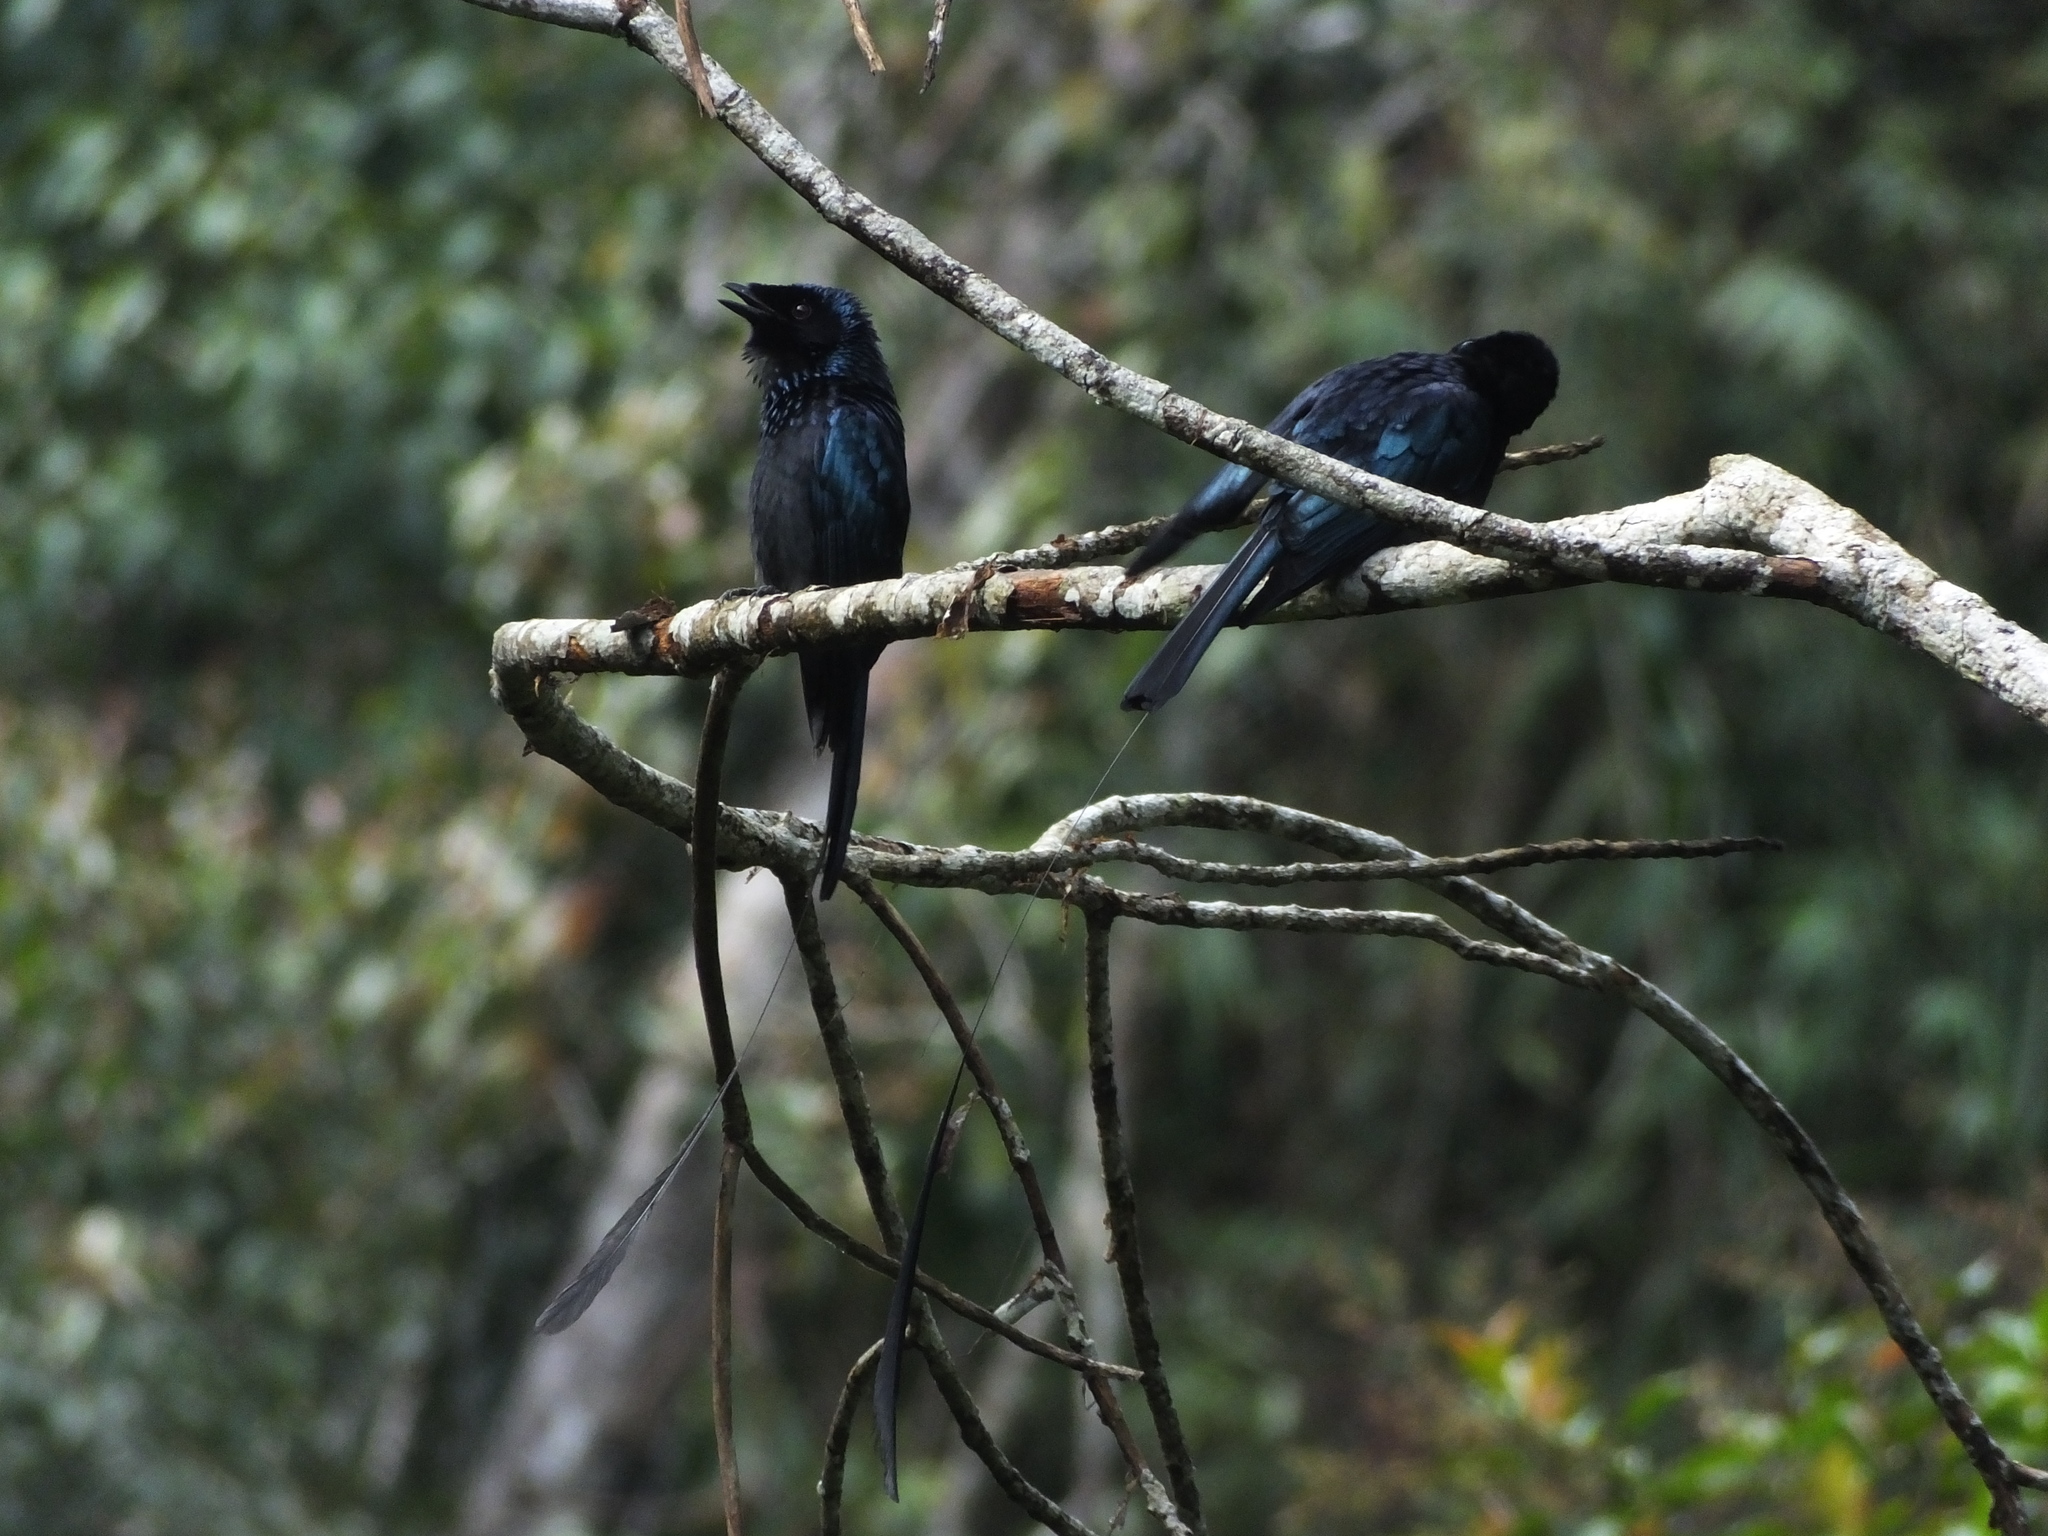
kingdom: Animalia
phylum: Chordata
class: Aves
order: Passeriformes
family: Dicruridae
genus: Dicrurus
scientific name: Dicrurus remifer
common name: Lesser racket-tailed drongo
